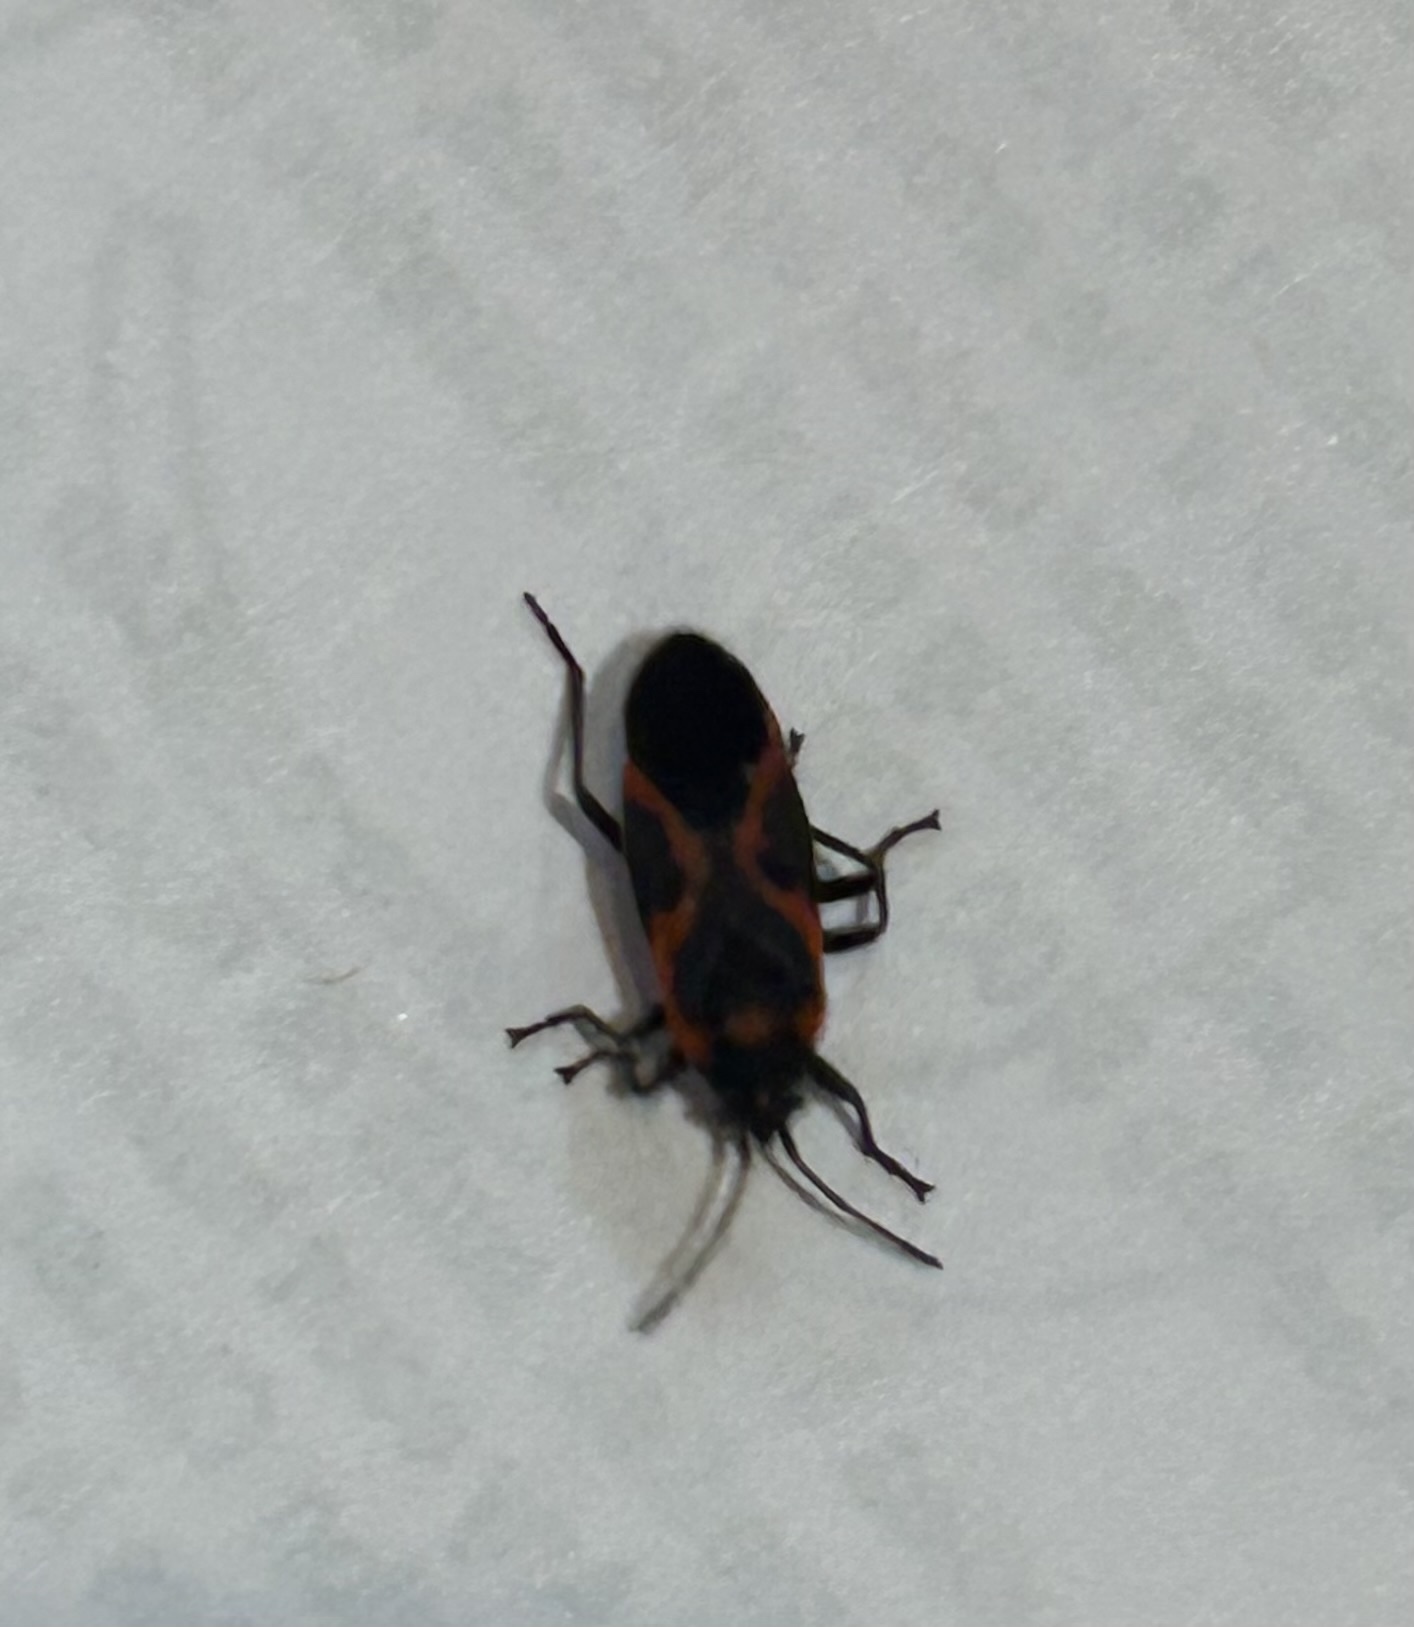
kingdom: Animalia
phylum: Arthropoda
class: Insecta
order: Hemiptera
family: Lygaeidae
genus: Lygaeus
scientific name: Lygaeus kalmii
